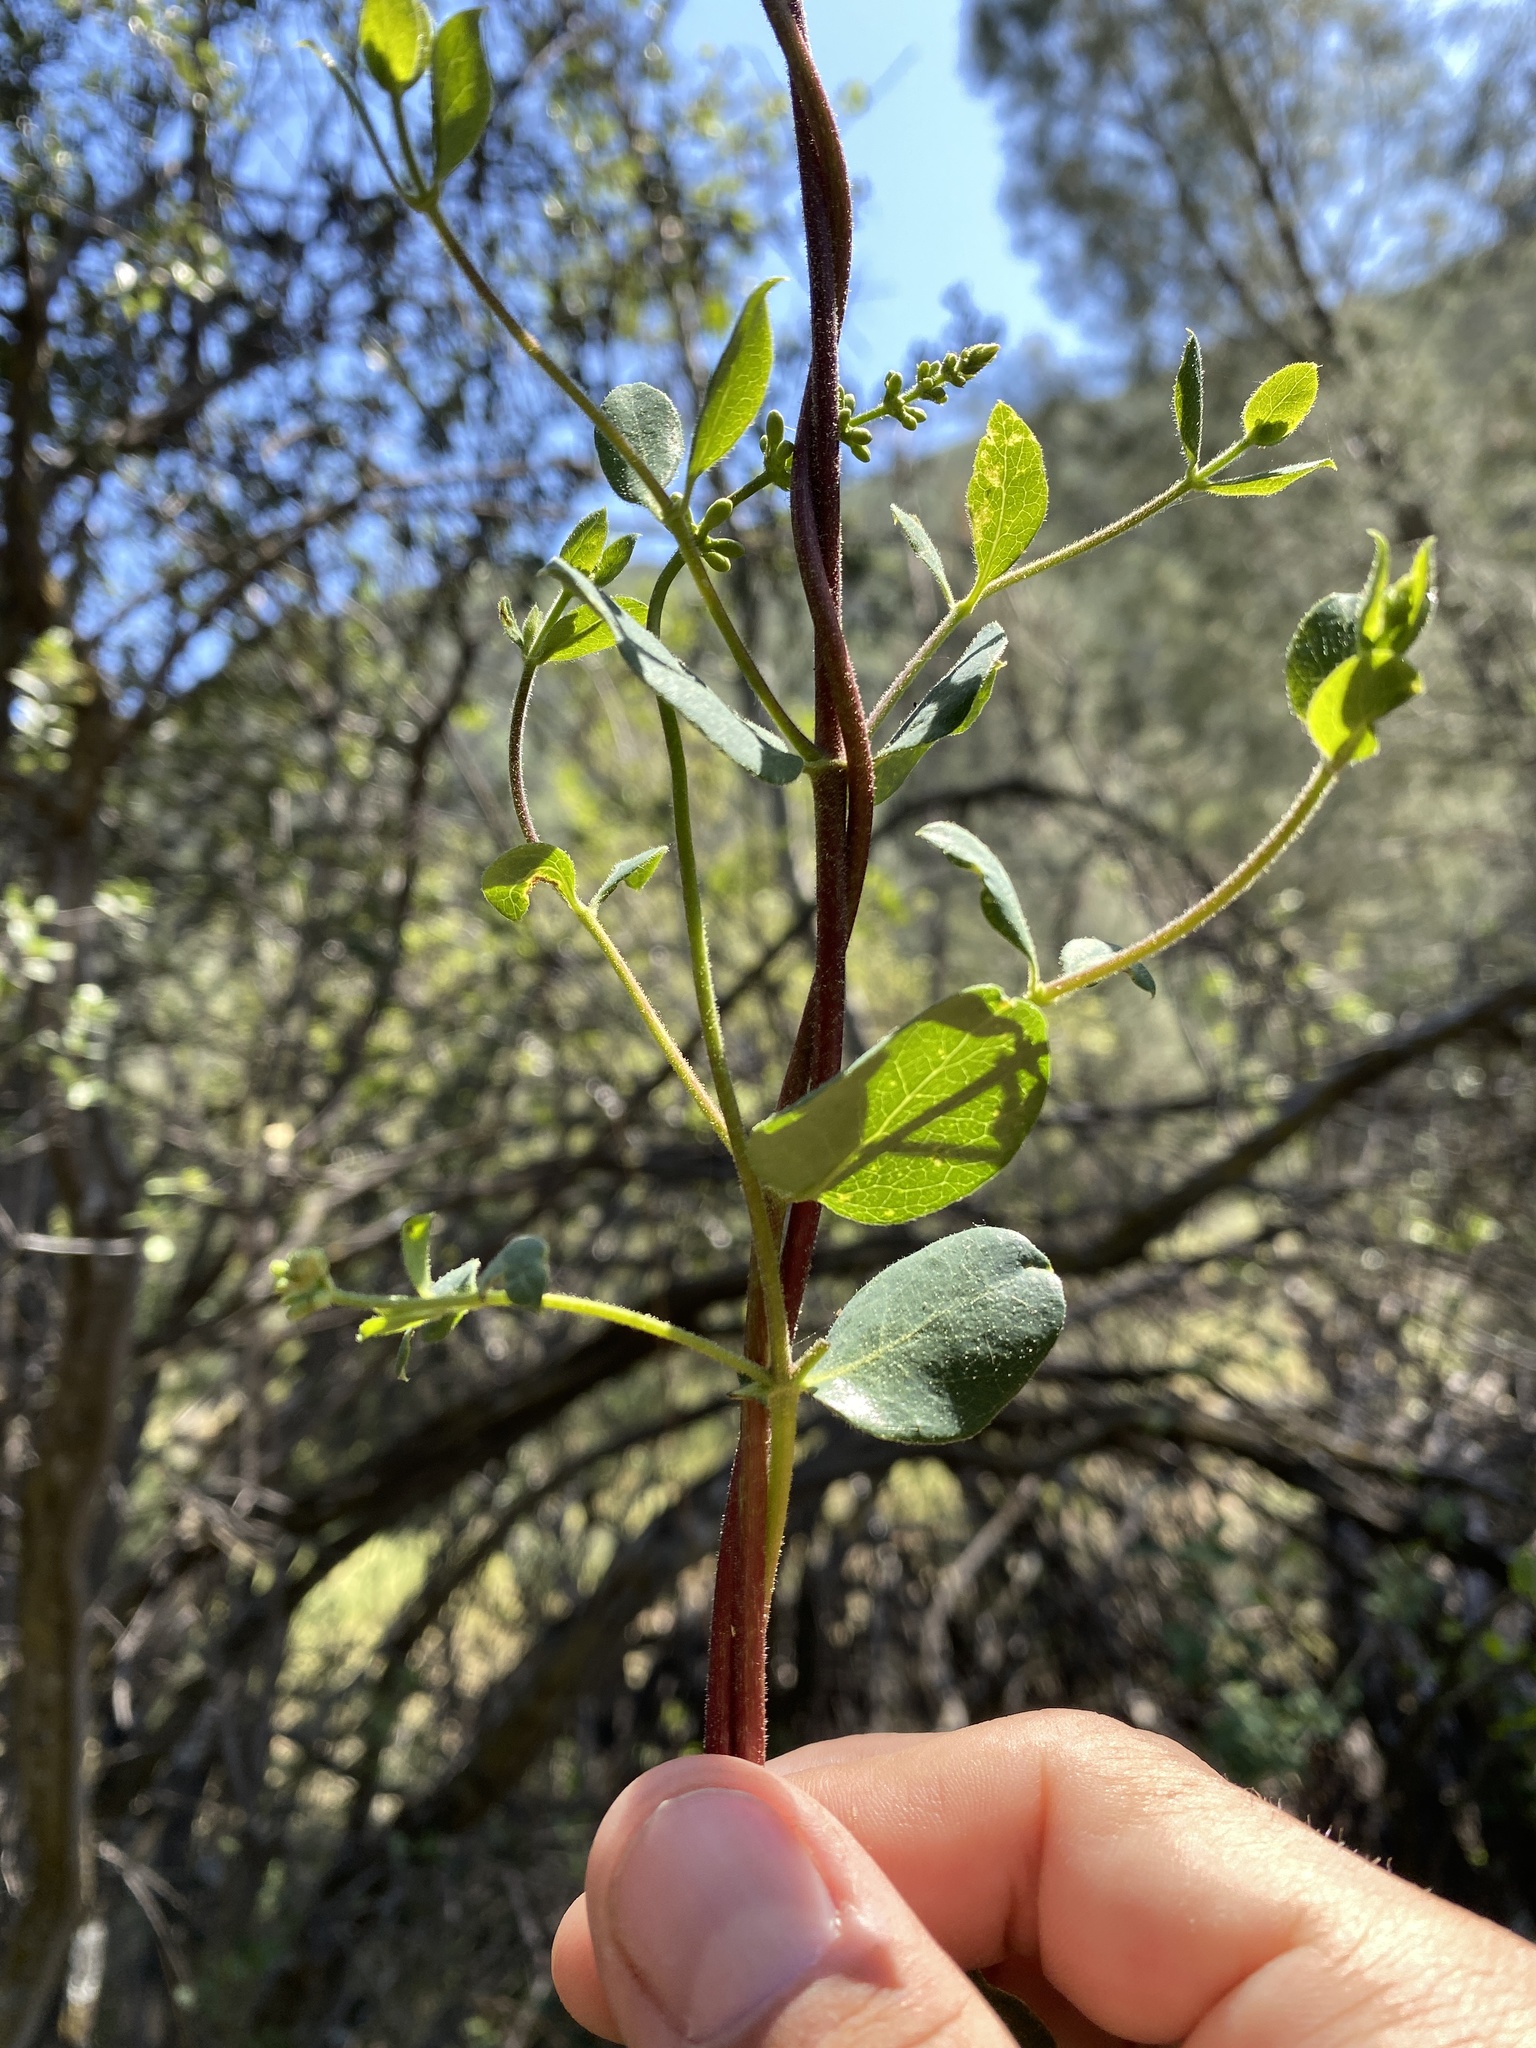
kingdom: Plantae
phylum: Tracheophyta
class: Magnoliopsida
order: Dipsacales
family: Caprifoliaceae
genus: Lonicera
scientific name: Lonicera subspicata
